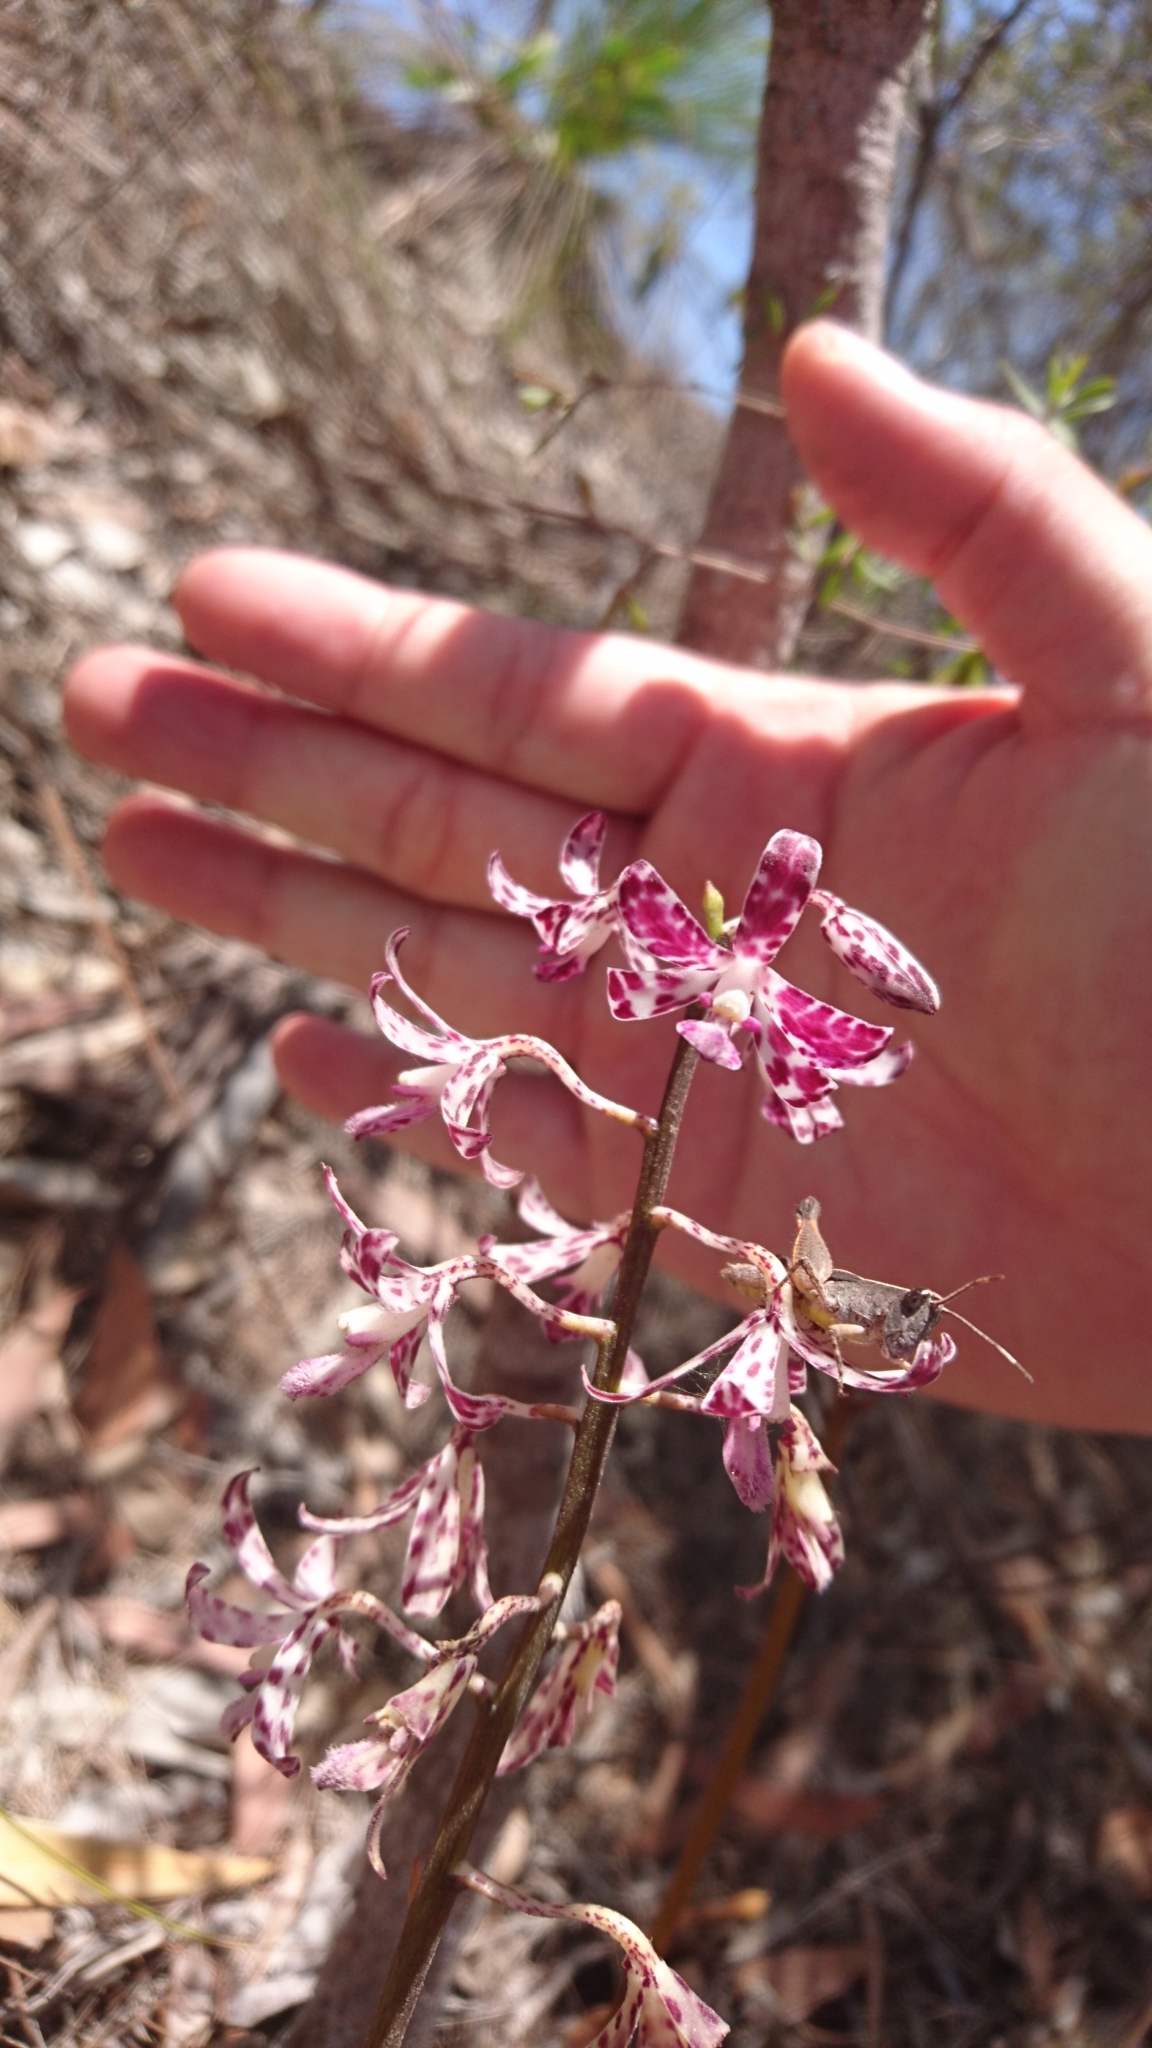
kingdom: Plantae
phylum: Tracheophyta
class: Liliopsida
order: Asparagales
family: Orchidaceae
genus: Dipodium
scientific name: Dipodium variegatum
